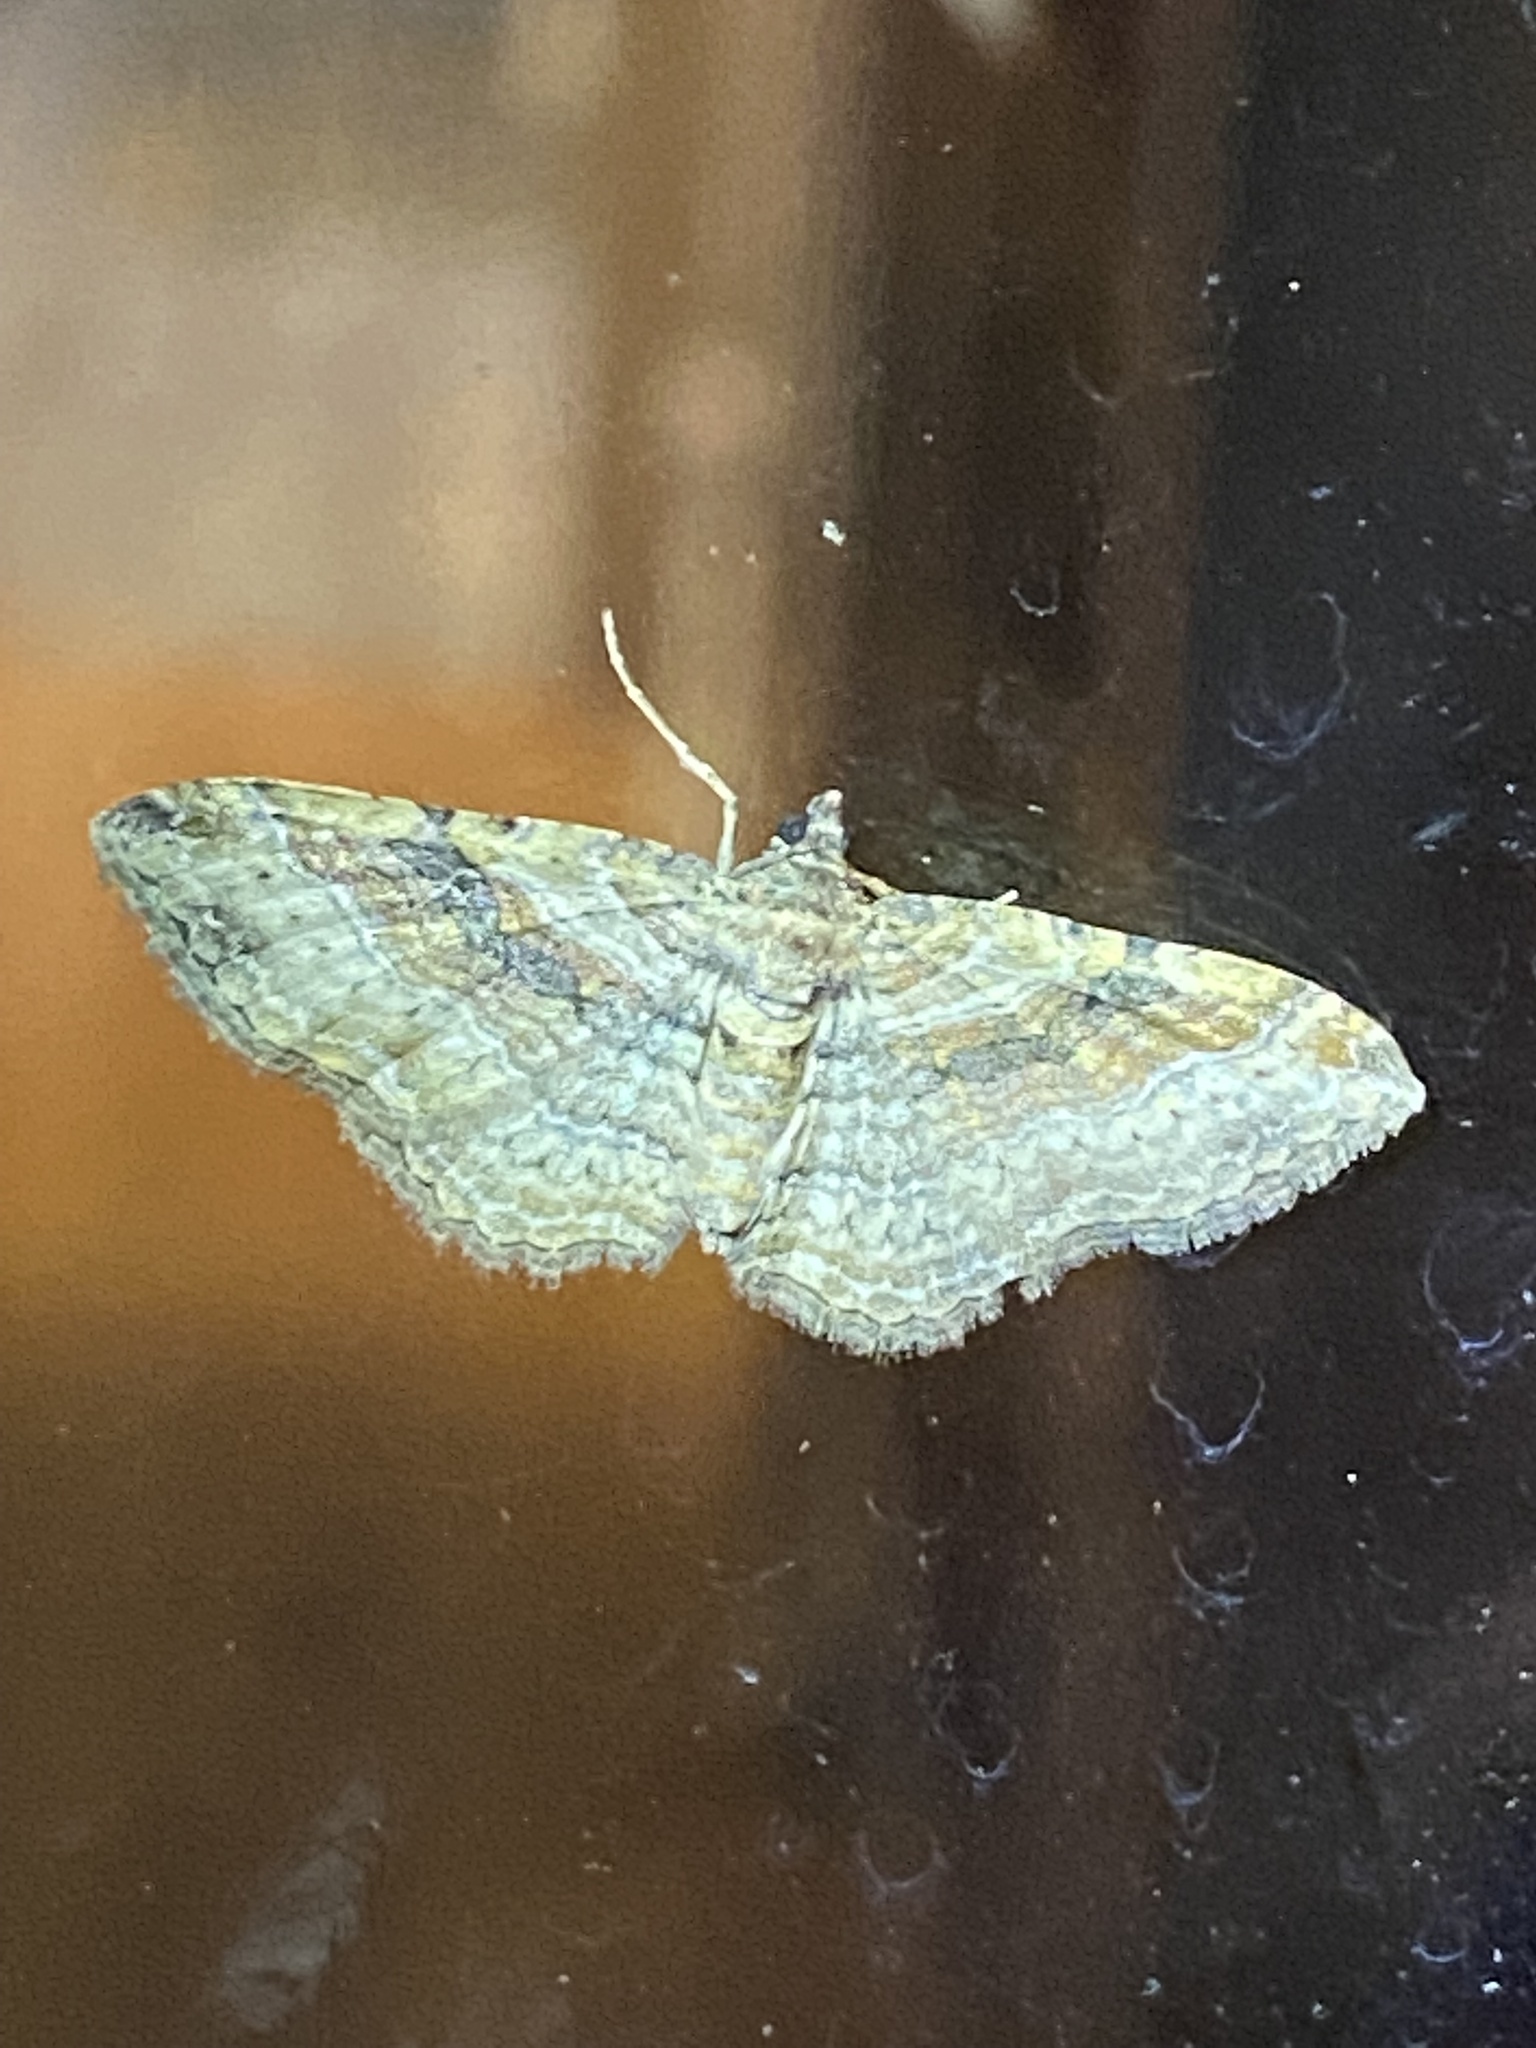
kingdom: Animalia
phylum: Arthropoda
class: Insecta
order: Lepidoptera
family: Geometridae
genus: Costaconvexa
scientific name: Costaconvexa centrostrigaria
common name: Bent-line carpet
